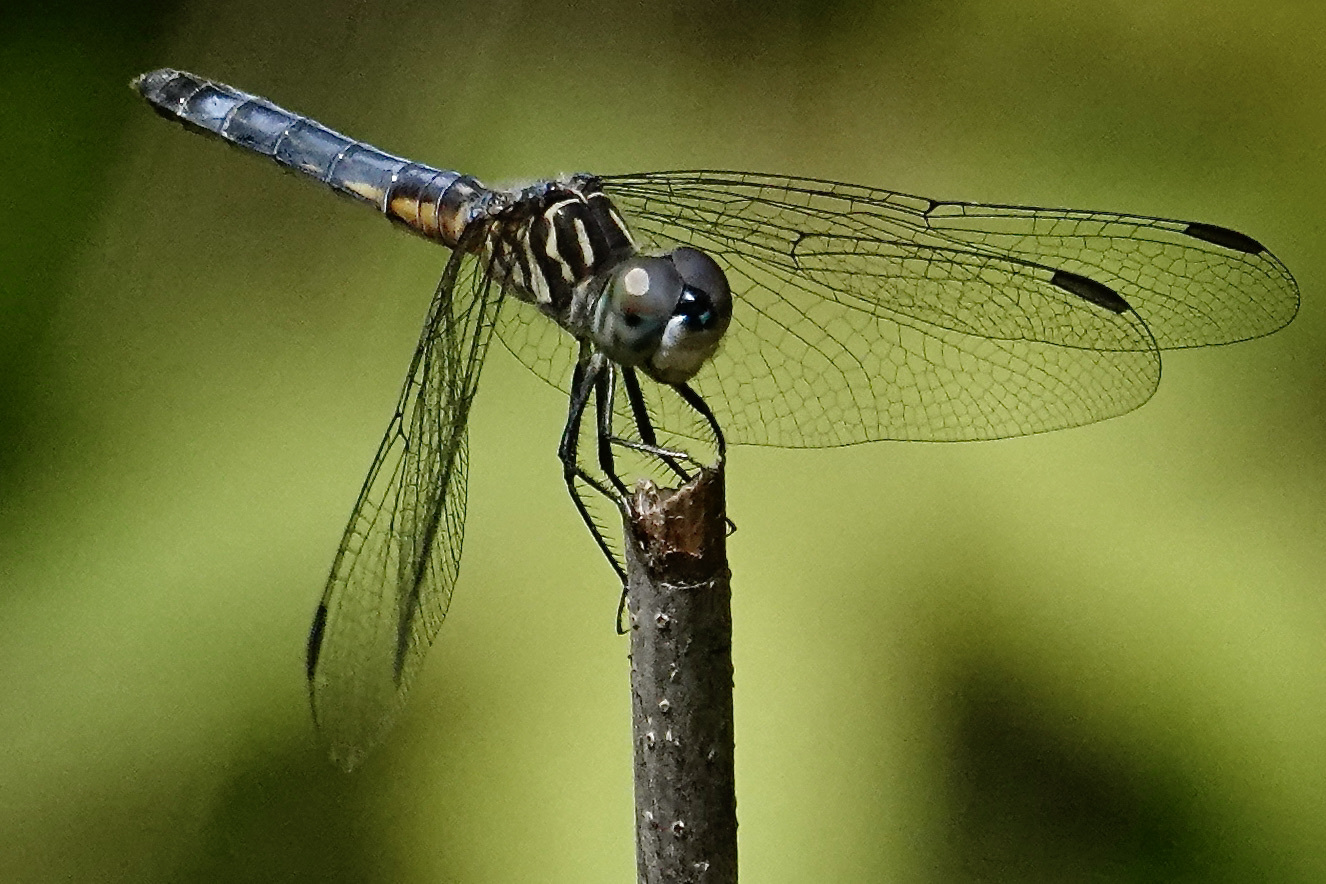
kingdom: Animalia
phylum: Arthropoda
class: Insecta
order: Odonata
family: Libellulidae
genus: Pachydiplax
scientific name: Pachydiplax longipennis
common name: Blue dasher
